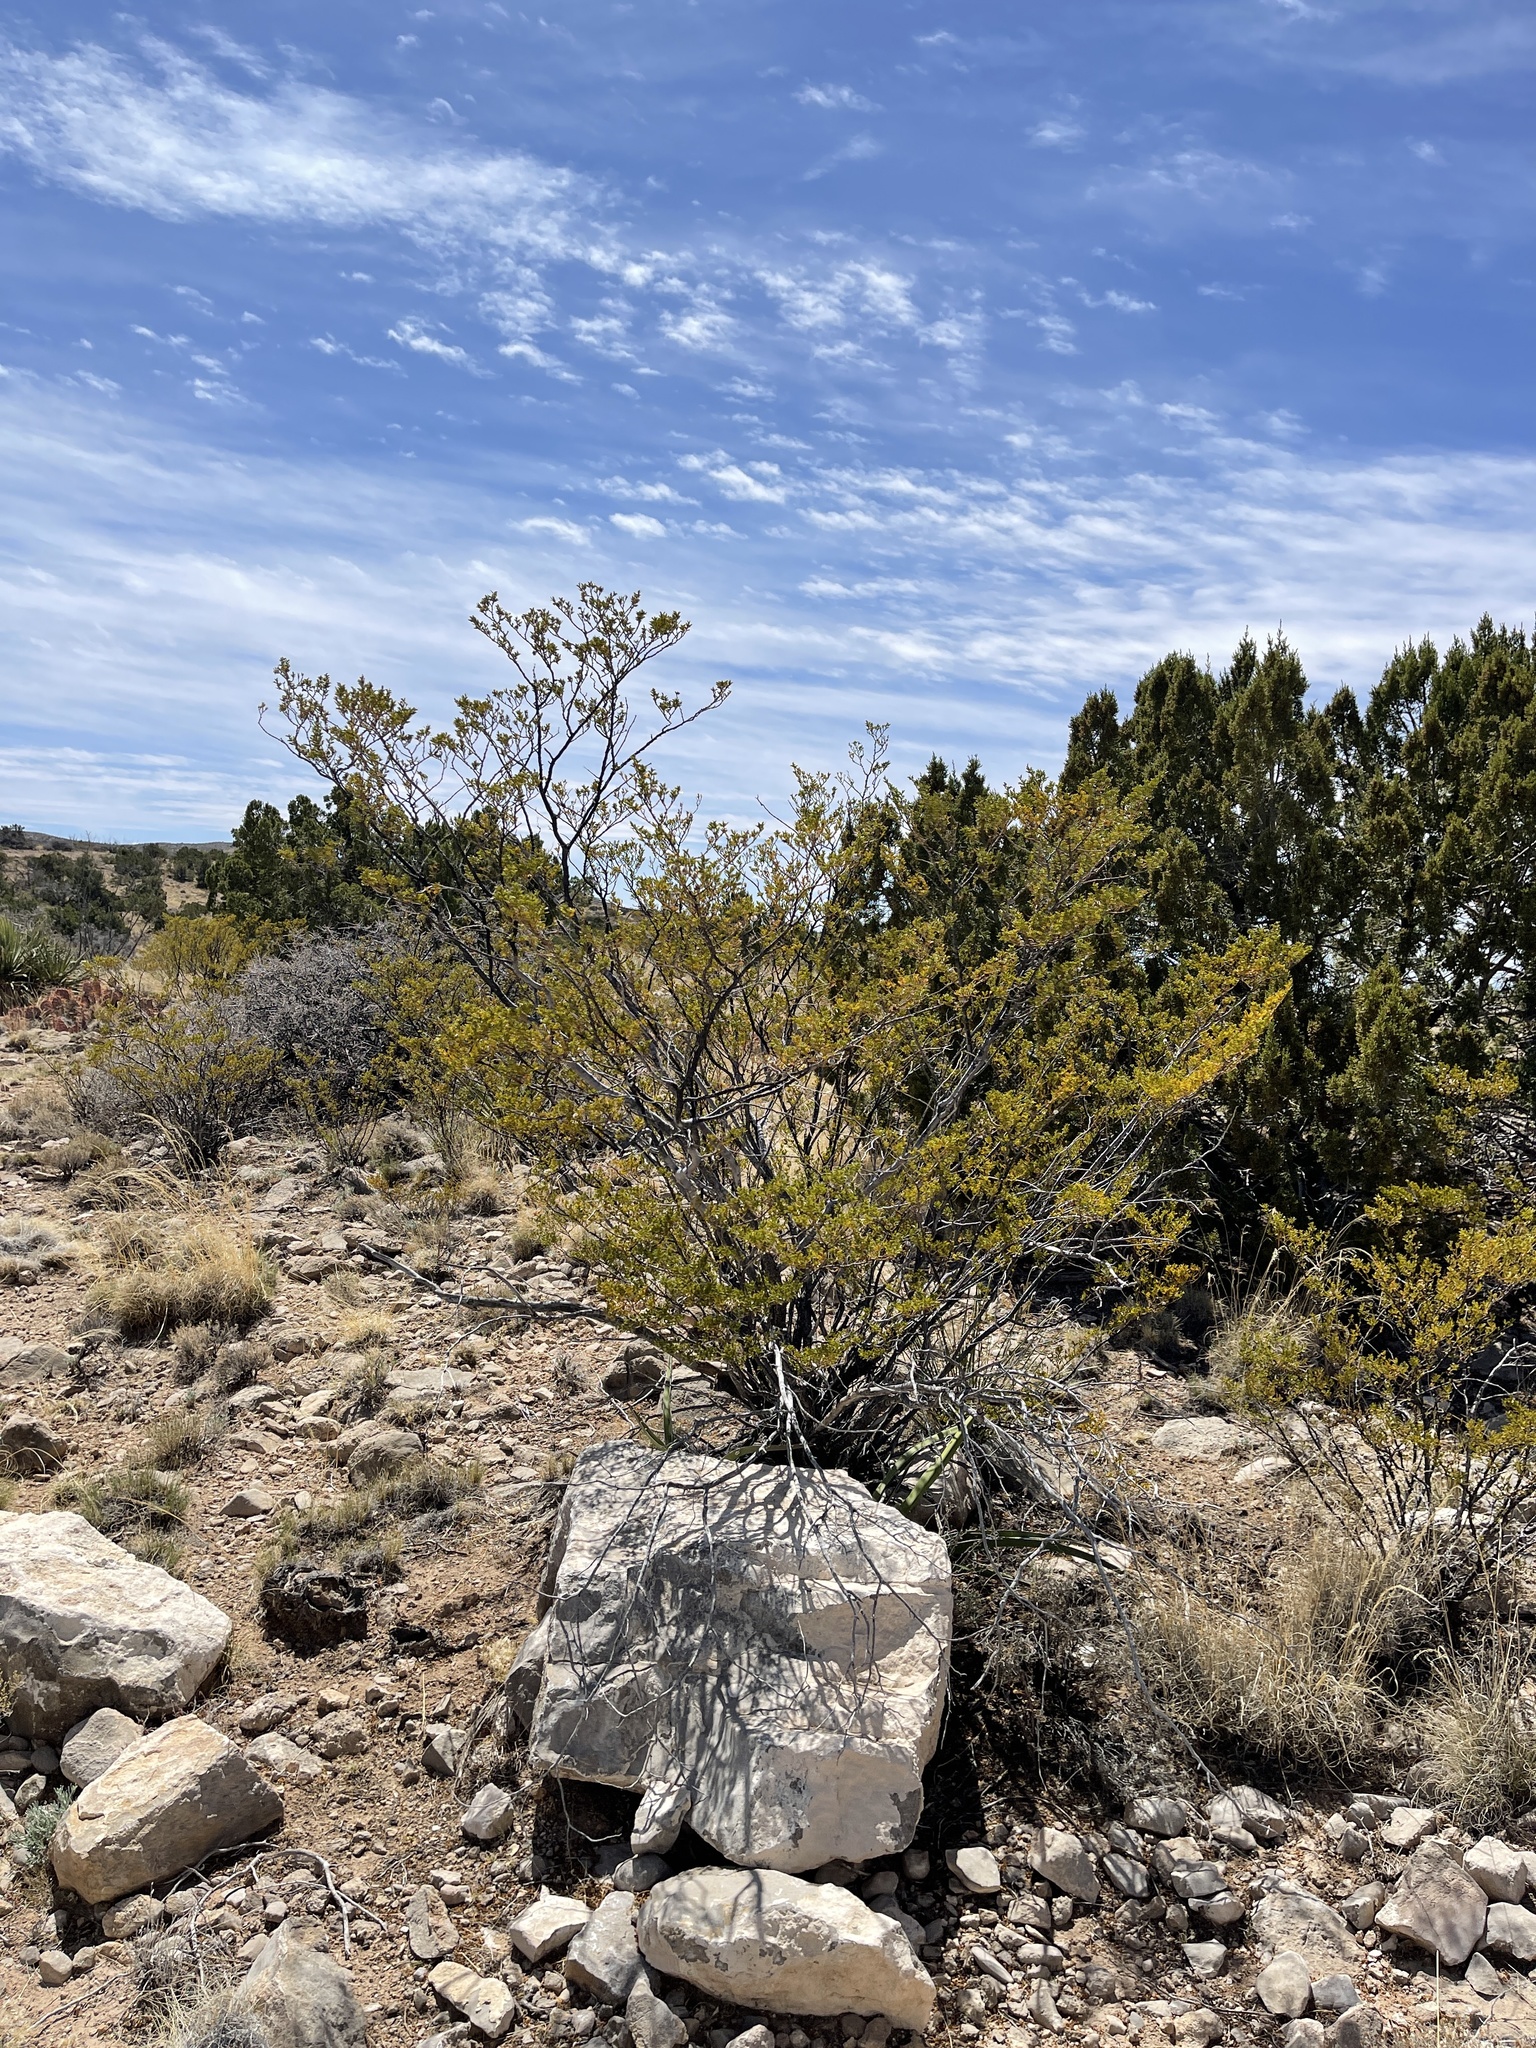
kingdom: Plantae
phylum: Tracheophyta
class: Magnoliopsida
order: Zygophyllales
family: Zygophyllaceae
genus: Larrea
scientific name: Larrea tridentata
